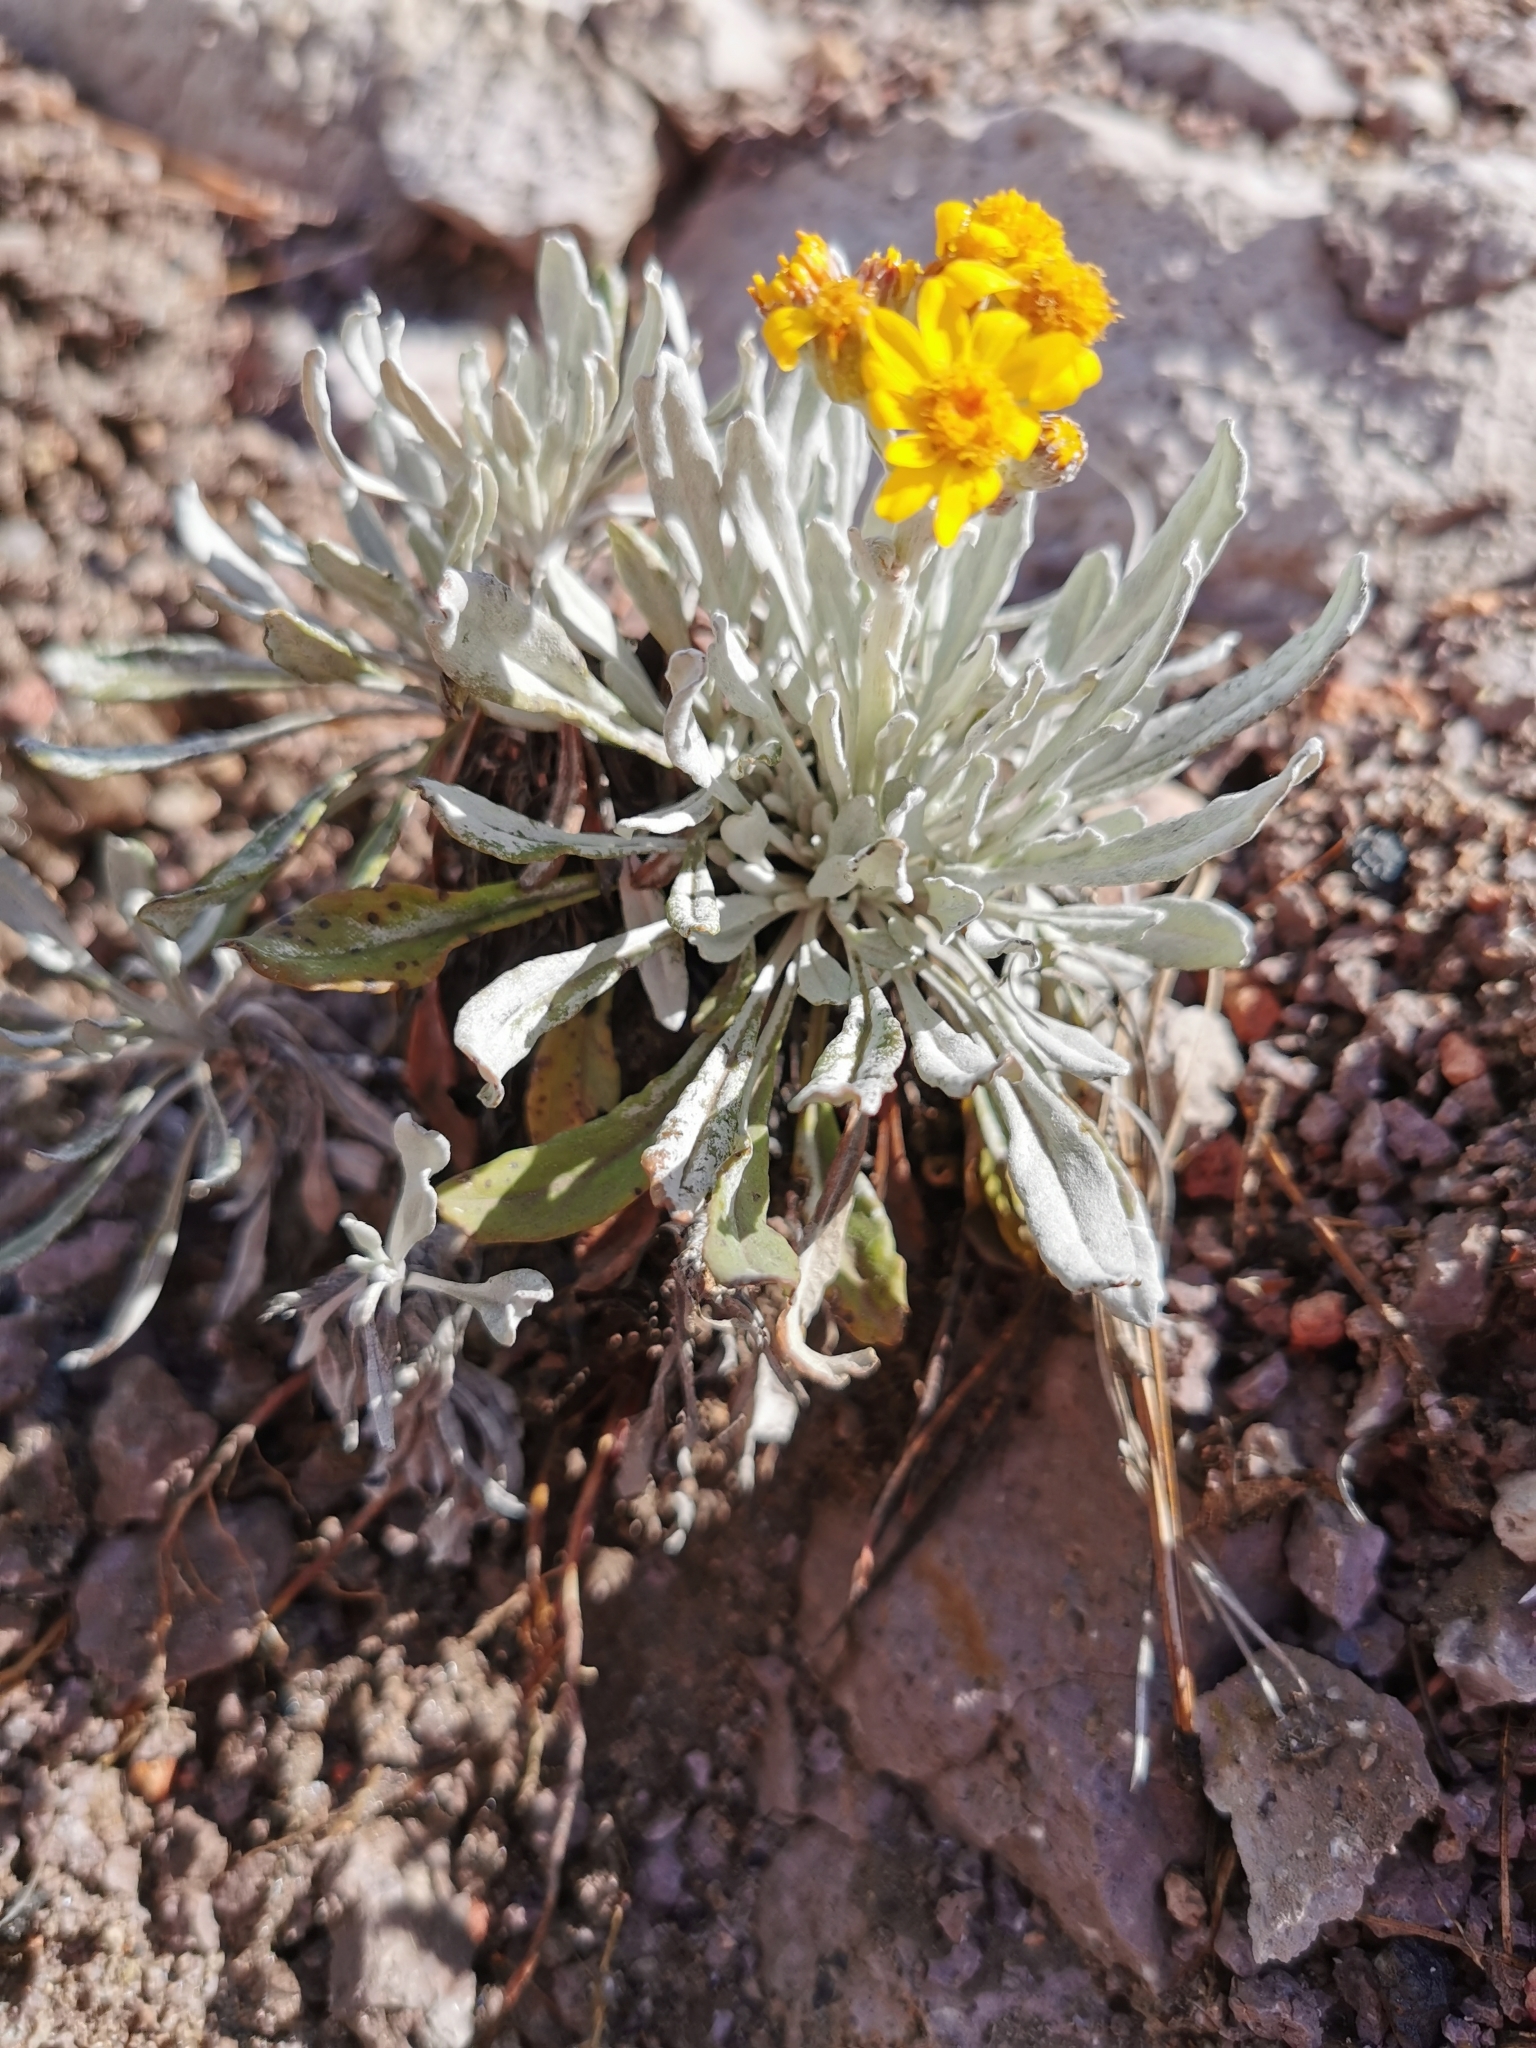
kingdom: Plantae
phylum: Tracheophyta
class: Magnoliopsida
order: Asterales
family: Asteraceae
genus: Packera
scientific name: Packera candidissima
